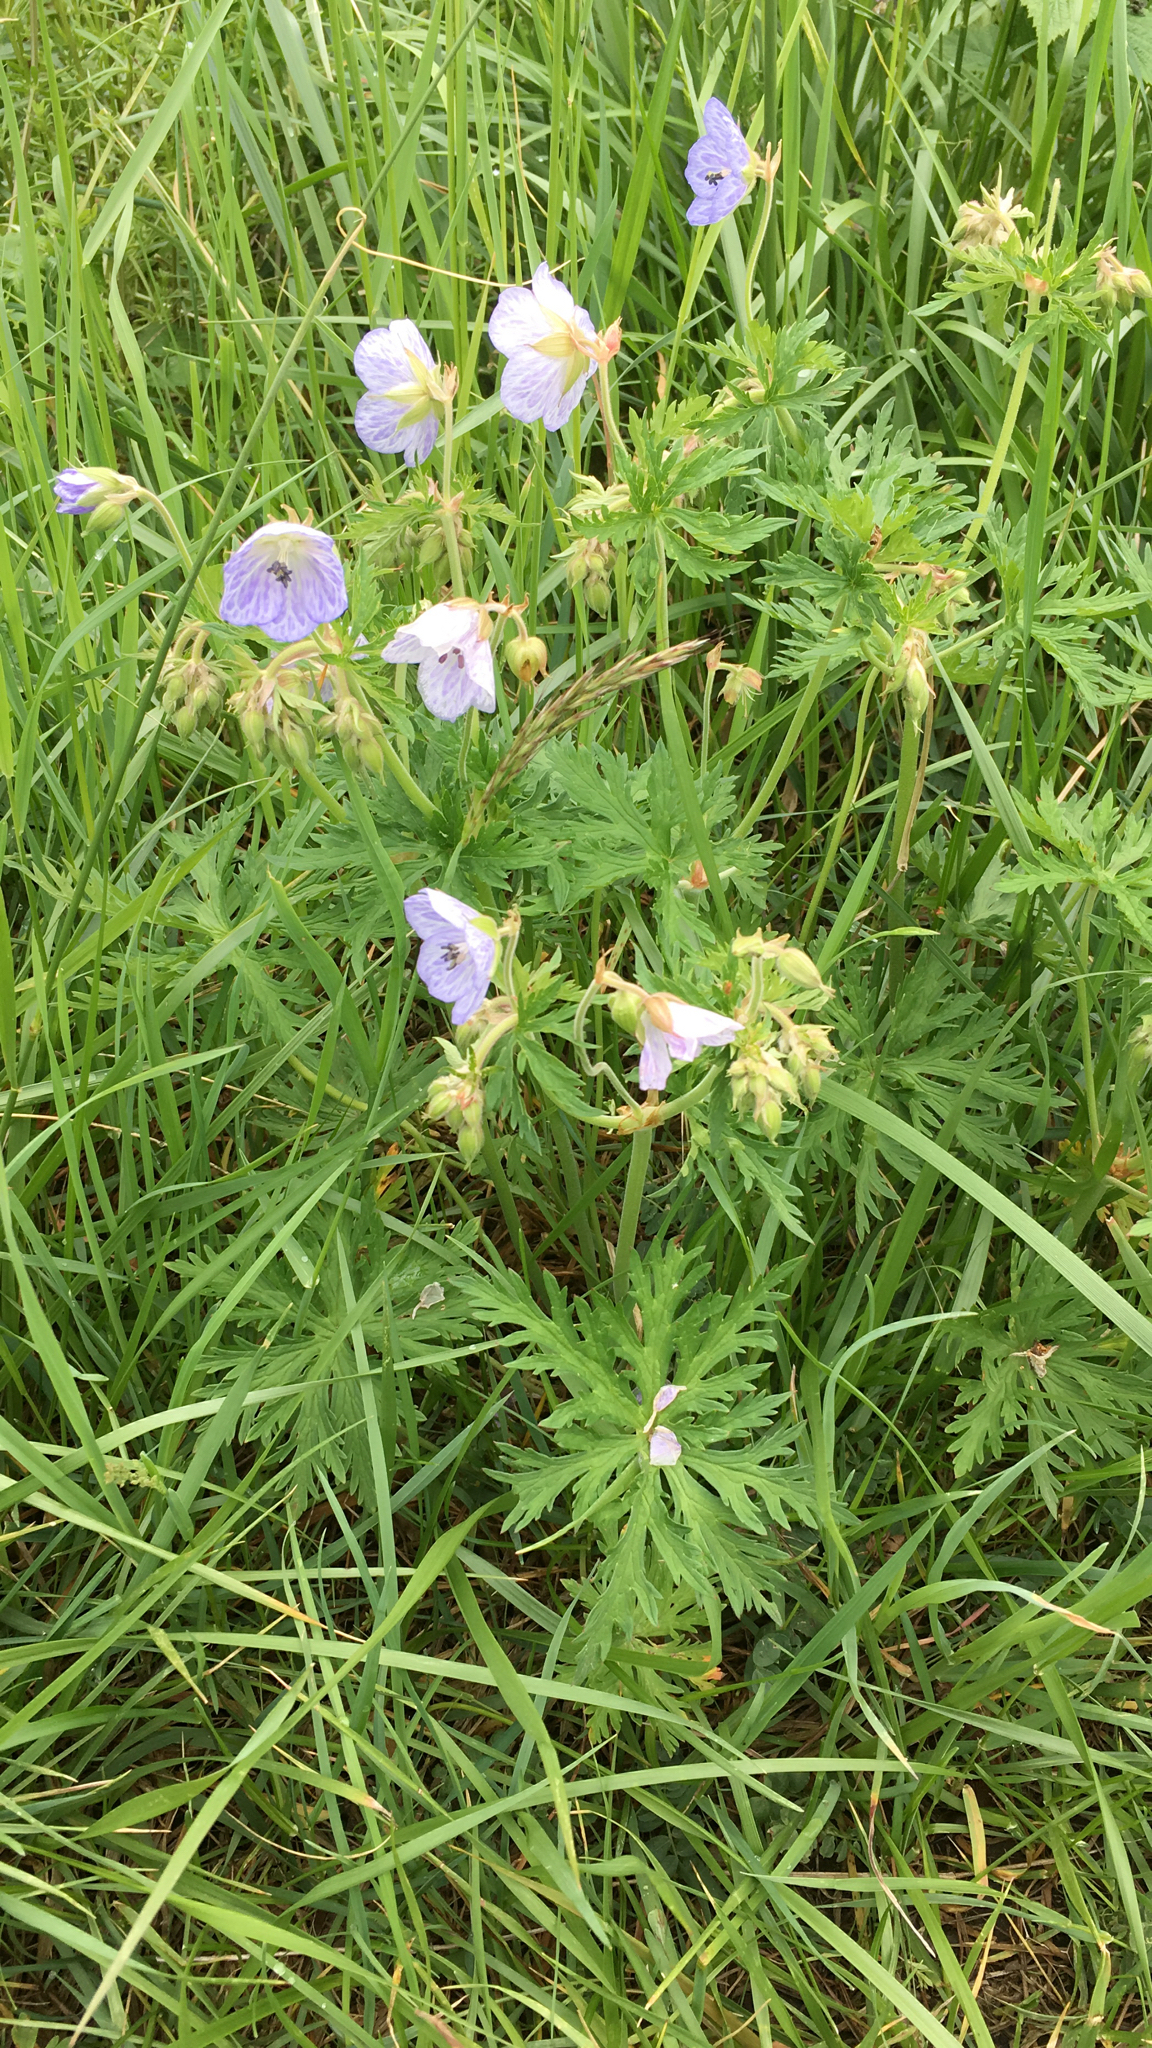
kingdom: Plantae
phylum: Tracheophyta
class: Magnoliopsida
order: Geraniales
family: Geraniaceae
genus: Geranium
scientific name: Geranium pratense
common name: Meadow crane's-bill
